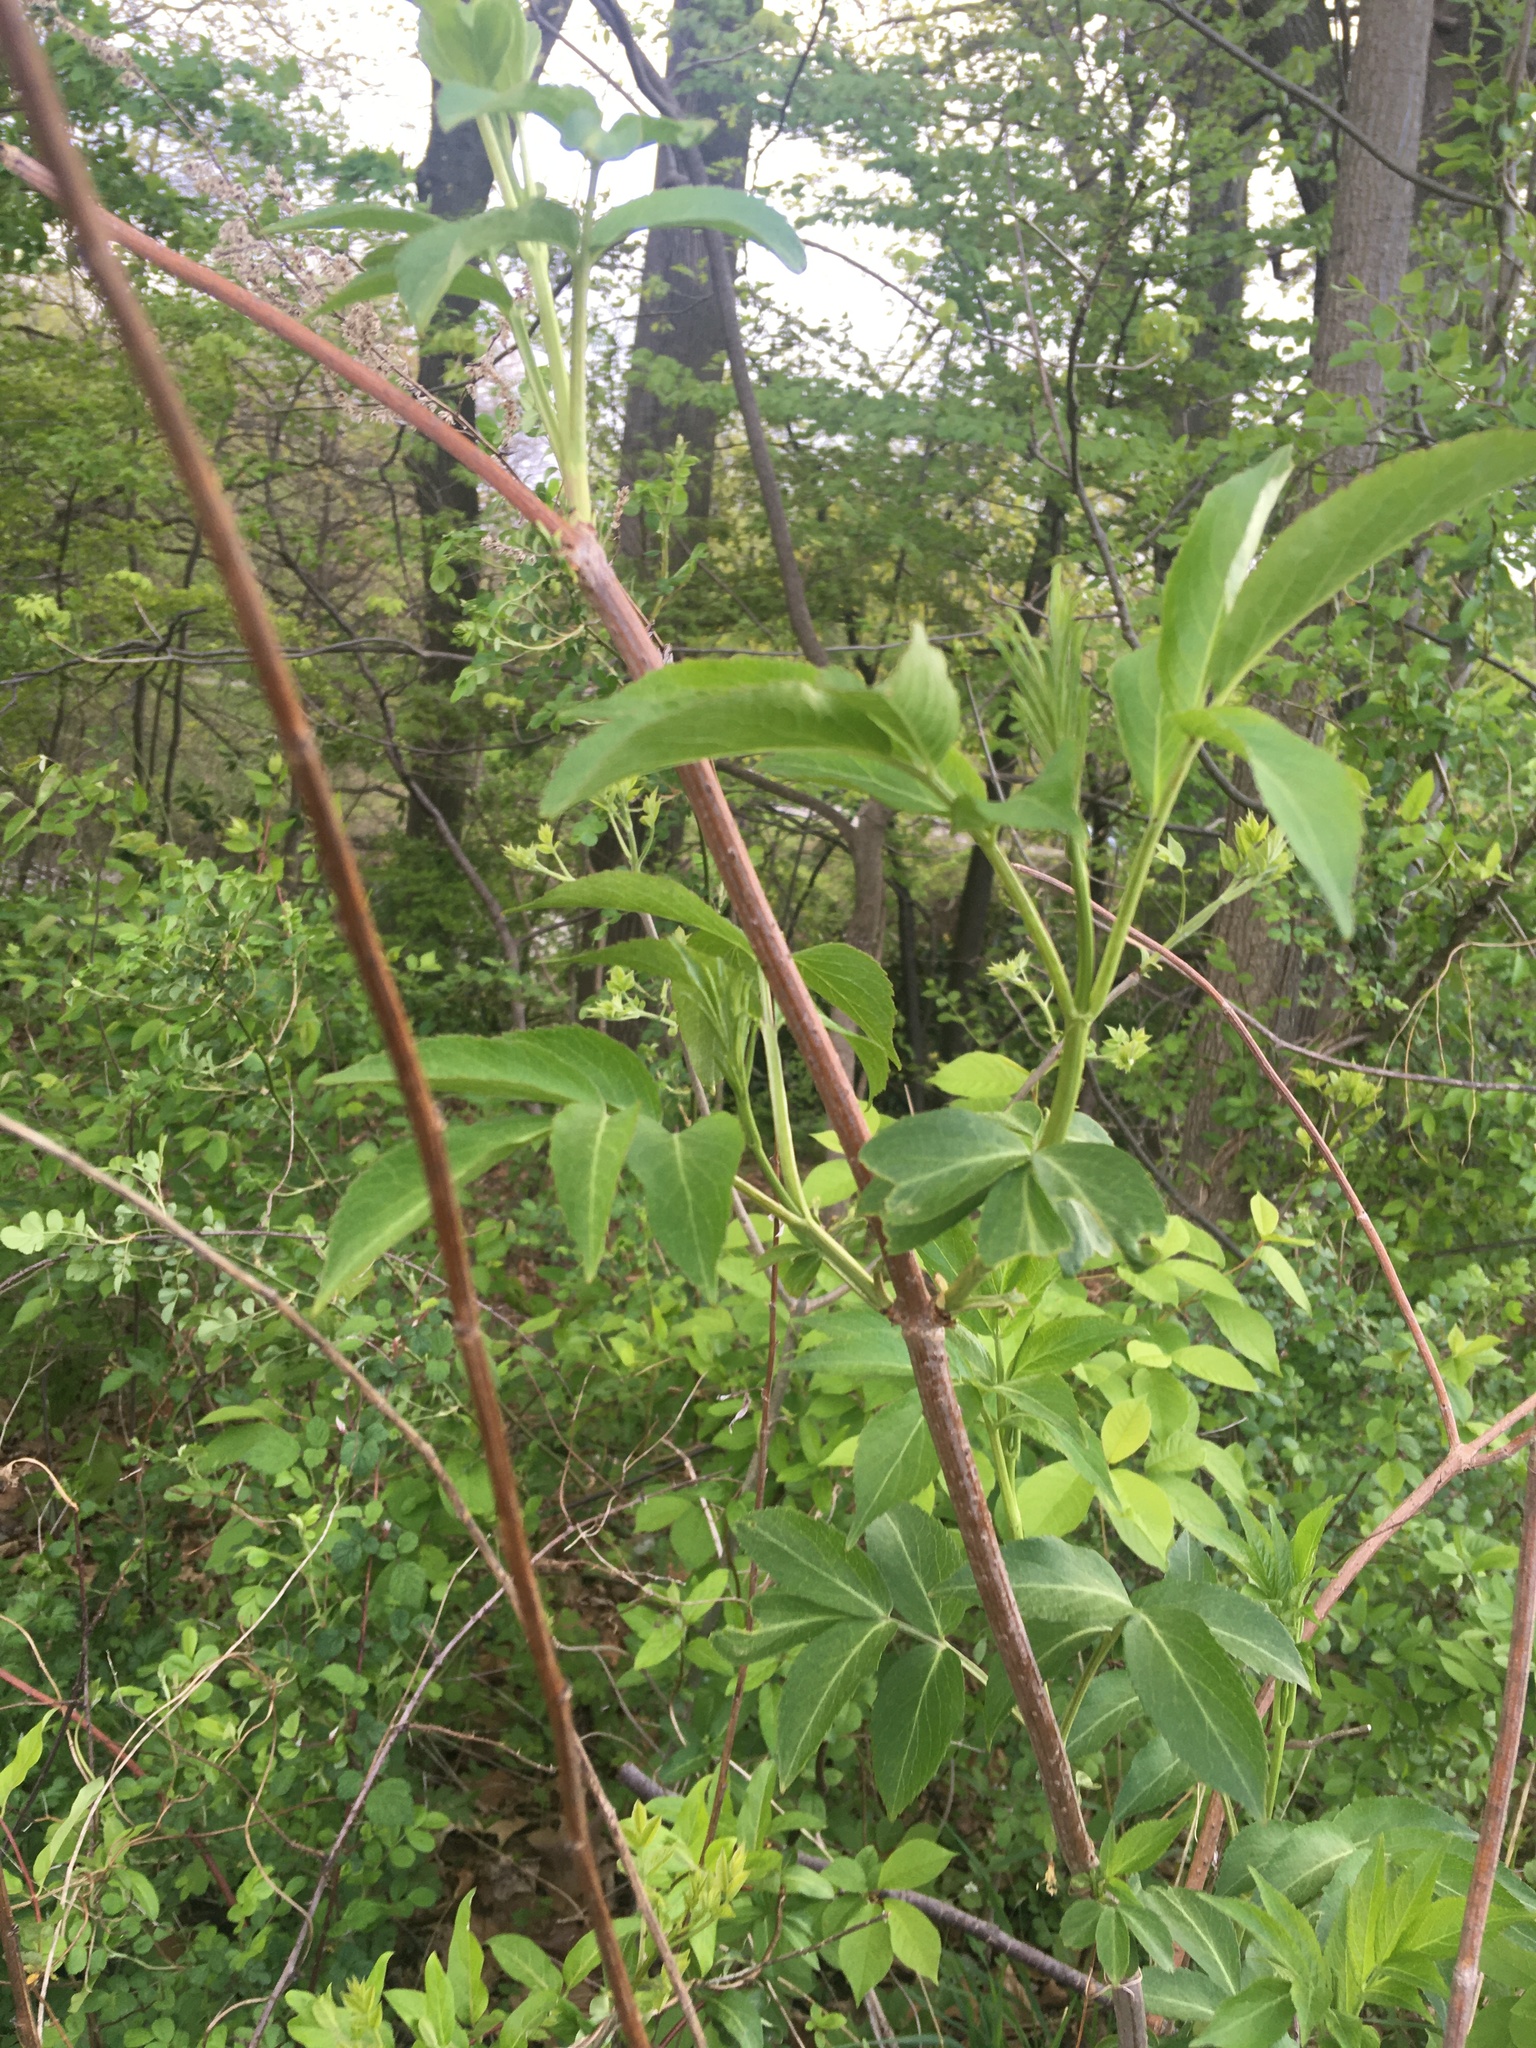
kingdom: Plantae
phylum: Tracheophyta
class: Magnoliopsida
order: Dipsacales
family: Viburnaceae
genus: Sambucus
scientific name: Sambucus canadensis
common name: American elder
